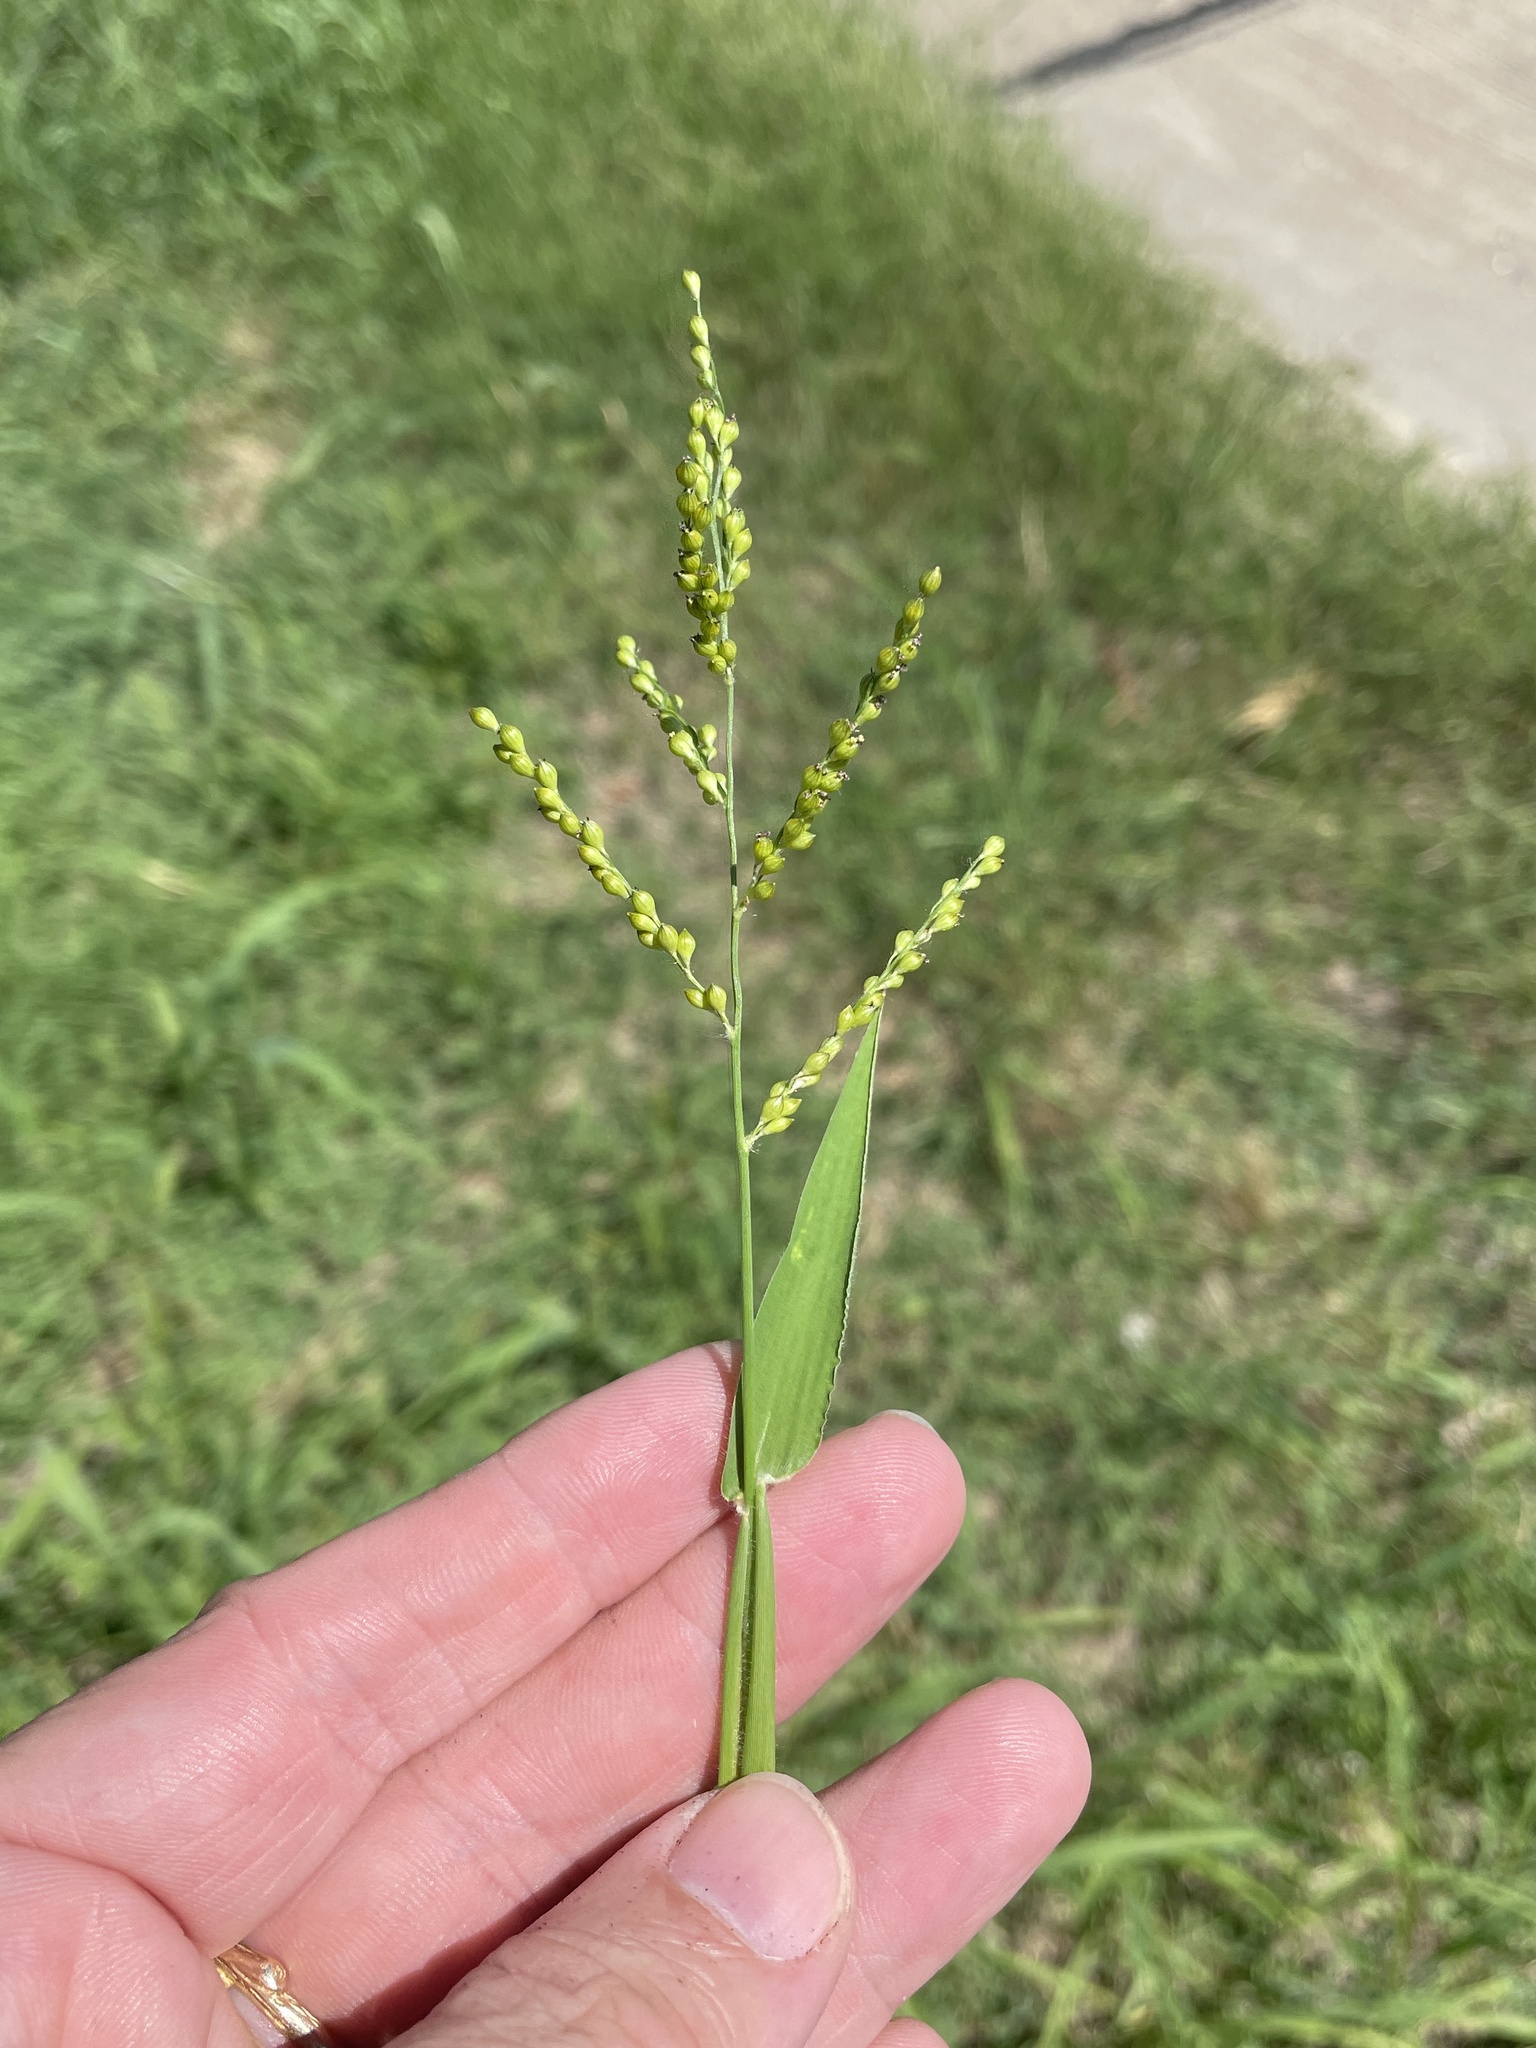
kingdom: Plantae
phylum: Tracheophyta
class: Liliopsida
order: Poales
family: Poaceae
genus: Urochloa
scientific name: Urochloa fusca
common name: Browntop signal grass
